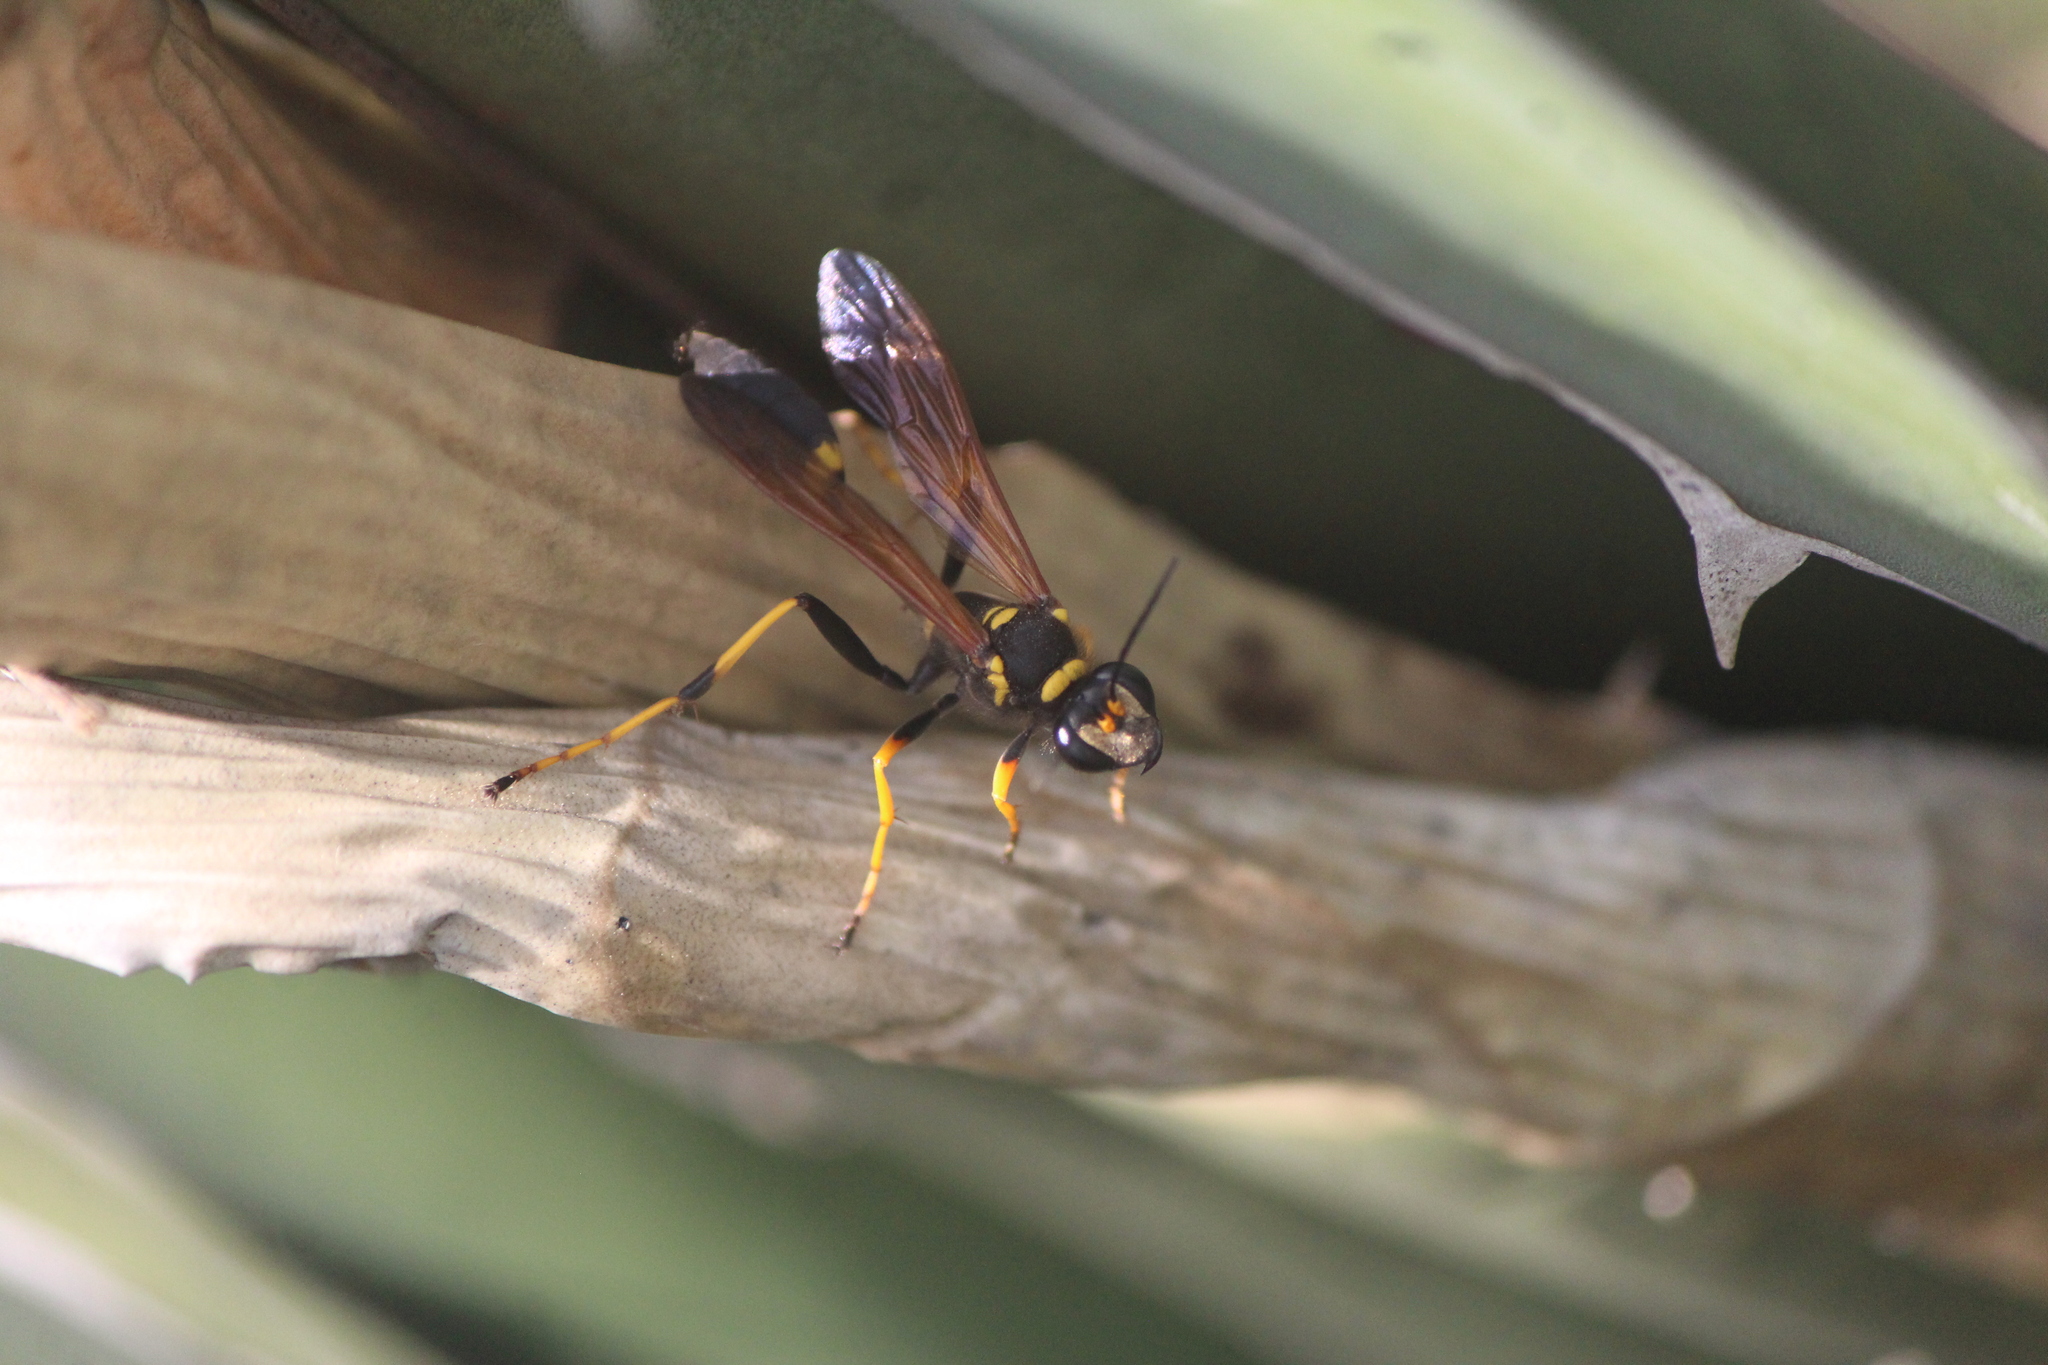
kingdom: Animalia
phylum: Arthropoda
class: Insecta
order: Hymenoptera
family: Sphecidae
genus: Sceliphron
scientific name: Sceliphron caementarium
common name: Mud dauber
